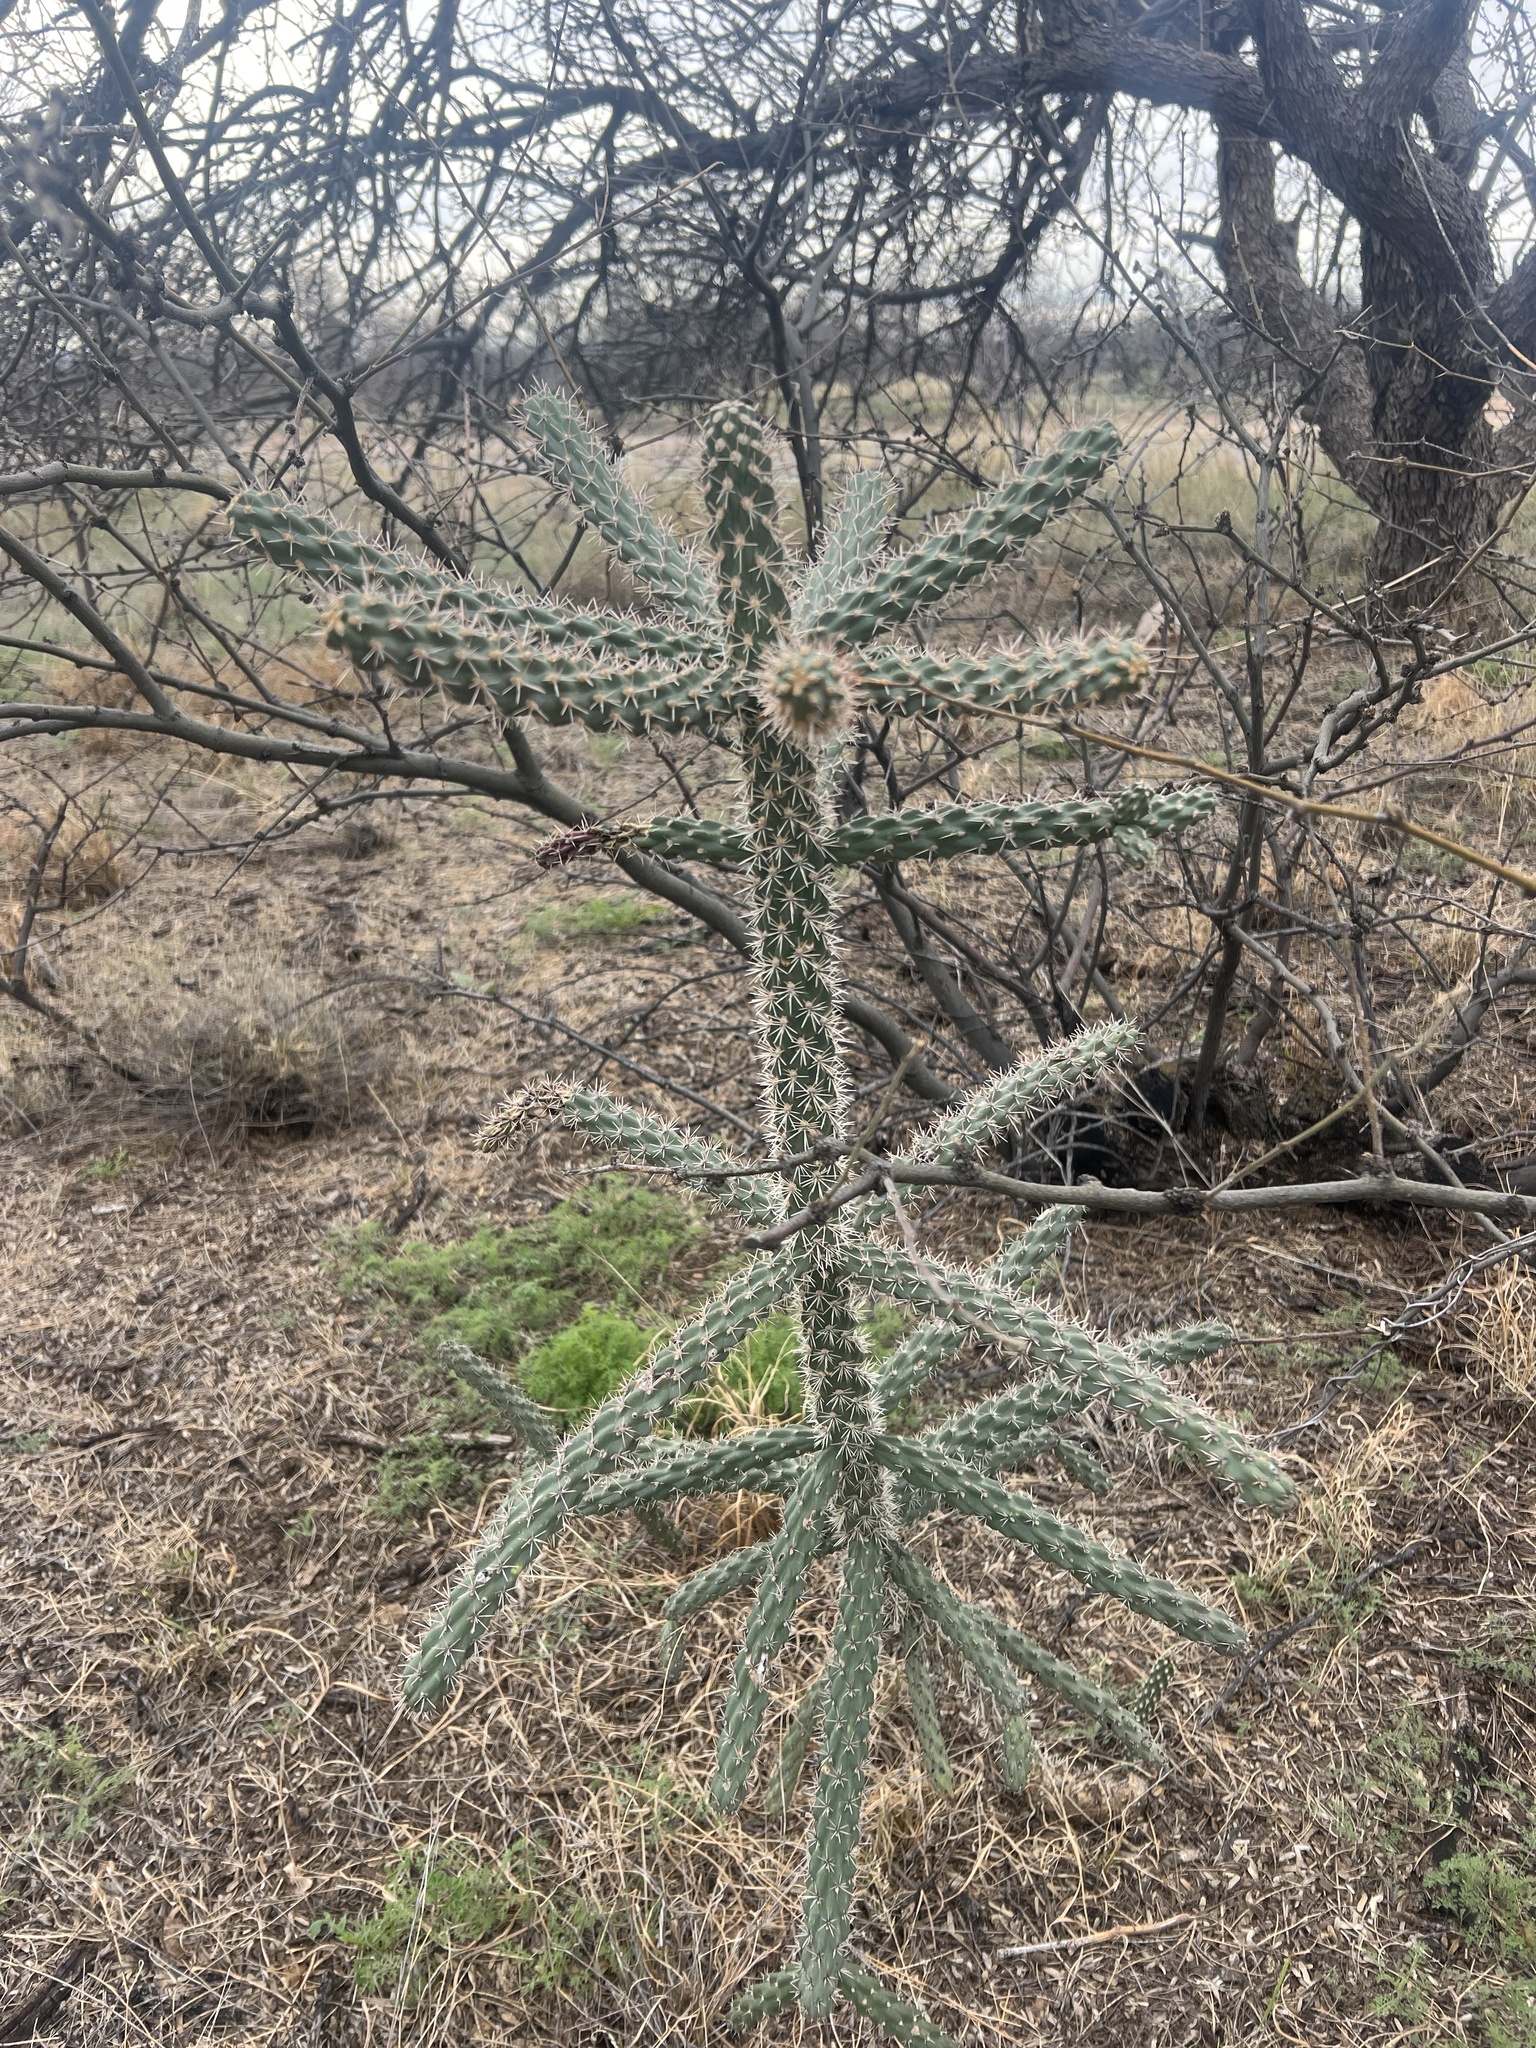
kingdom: Plantae
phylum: Tracheophyta
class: Magnoliopsida
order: Caryophyllales
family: Cactaceae
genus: Cylindropuntia
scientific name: Cylindropuntia imbricata
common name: Candelabrum cactus
